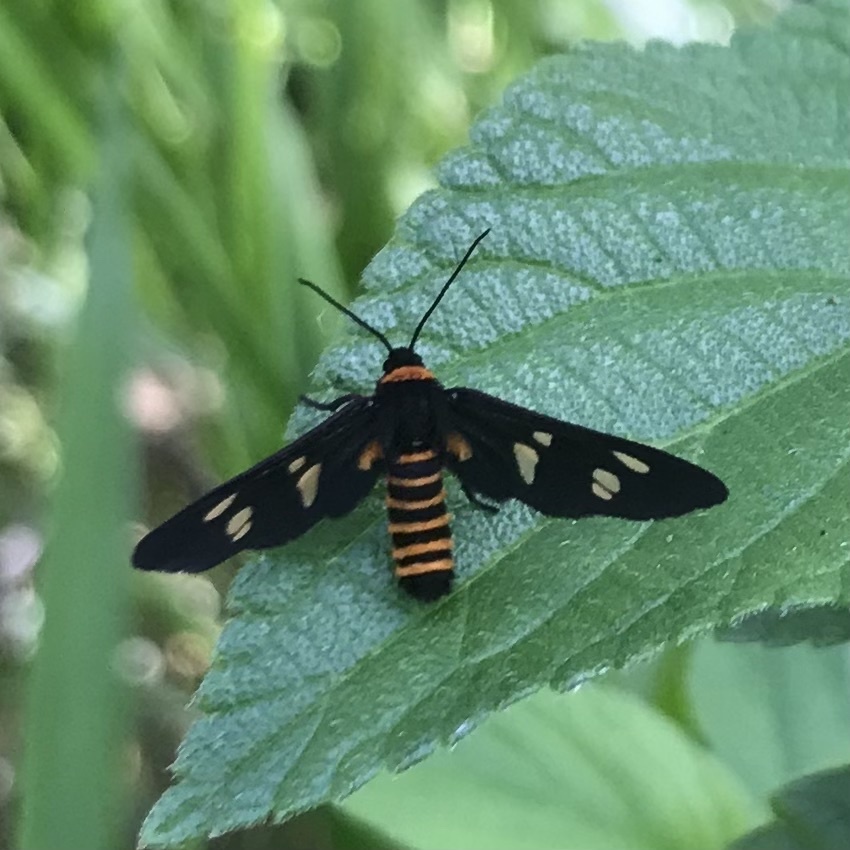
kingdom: Animalia
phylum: Arthropoda
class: Insecta
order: Lepidoptera
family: Erebidae
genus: Eressa
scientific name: Eressa angustipenna
